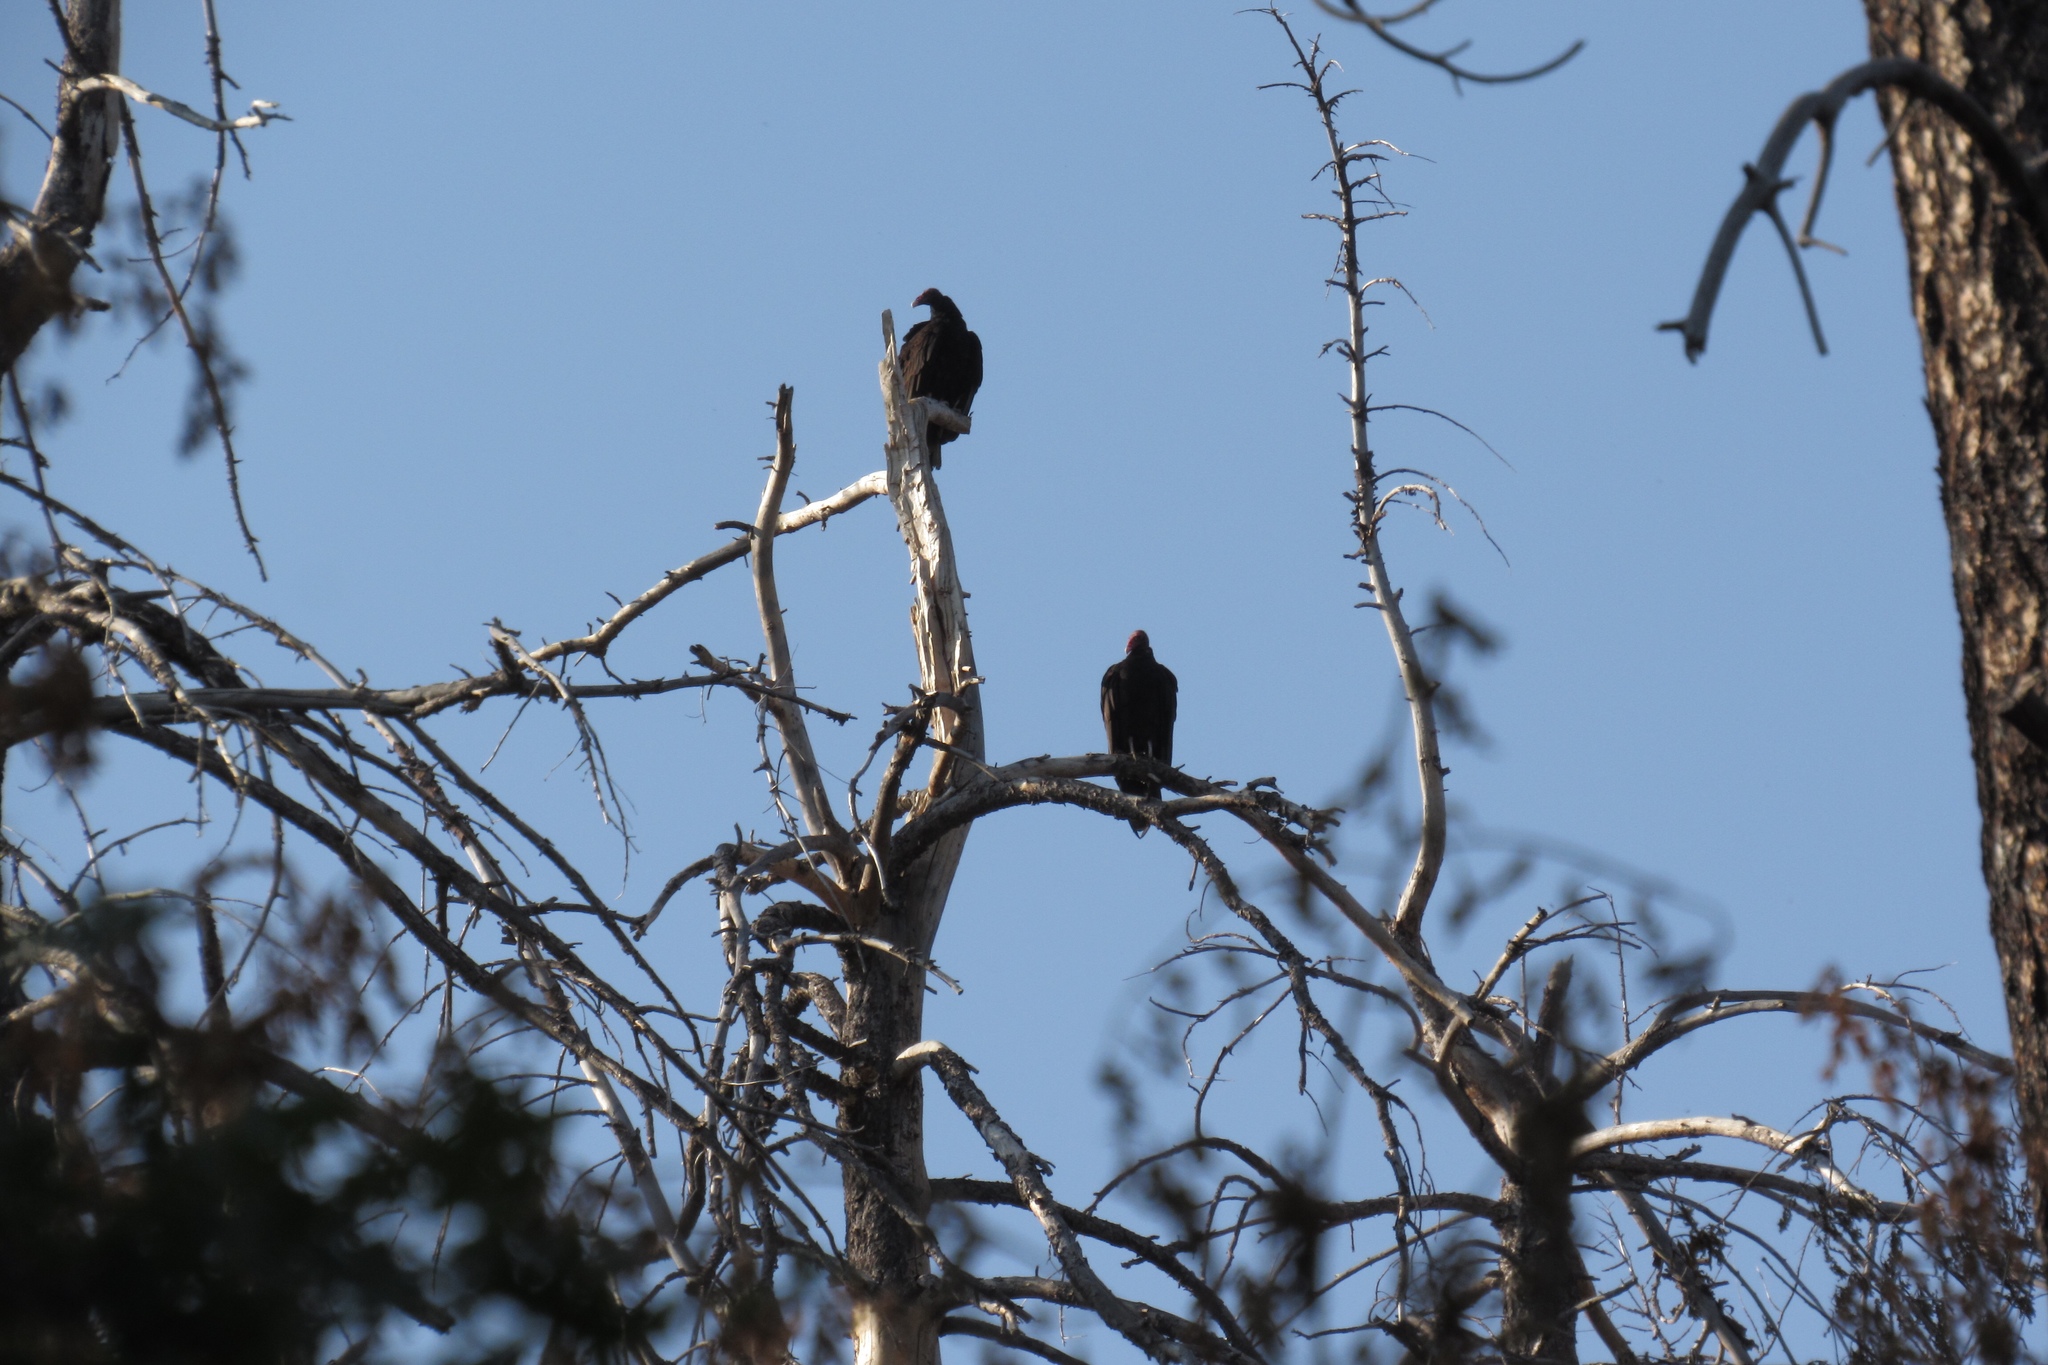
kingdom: Animalia
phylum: Chordata
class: Aves
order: Accipitriformes
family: Cathartidae
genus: Cathartes
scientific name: Cathartes aura
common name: Turkey vulture
